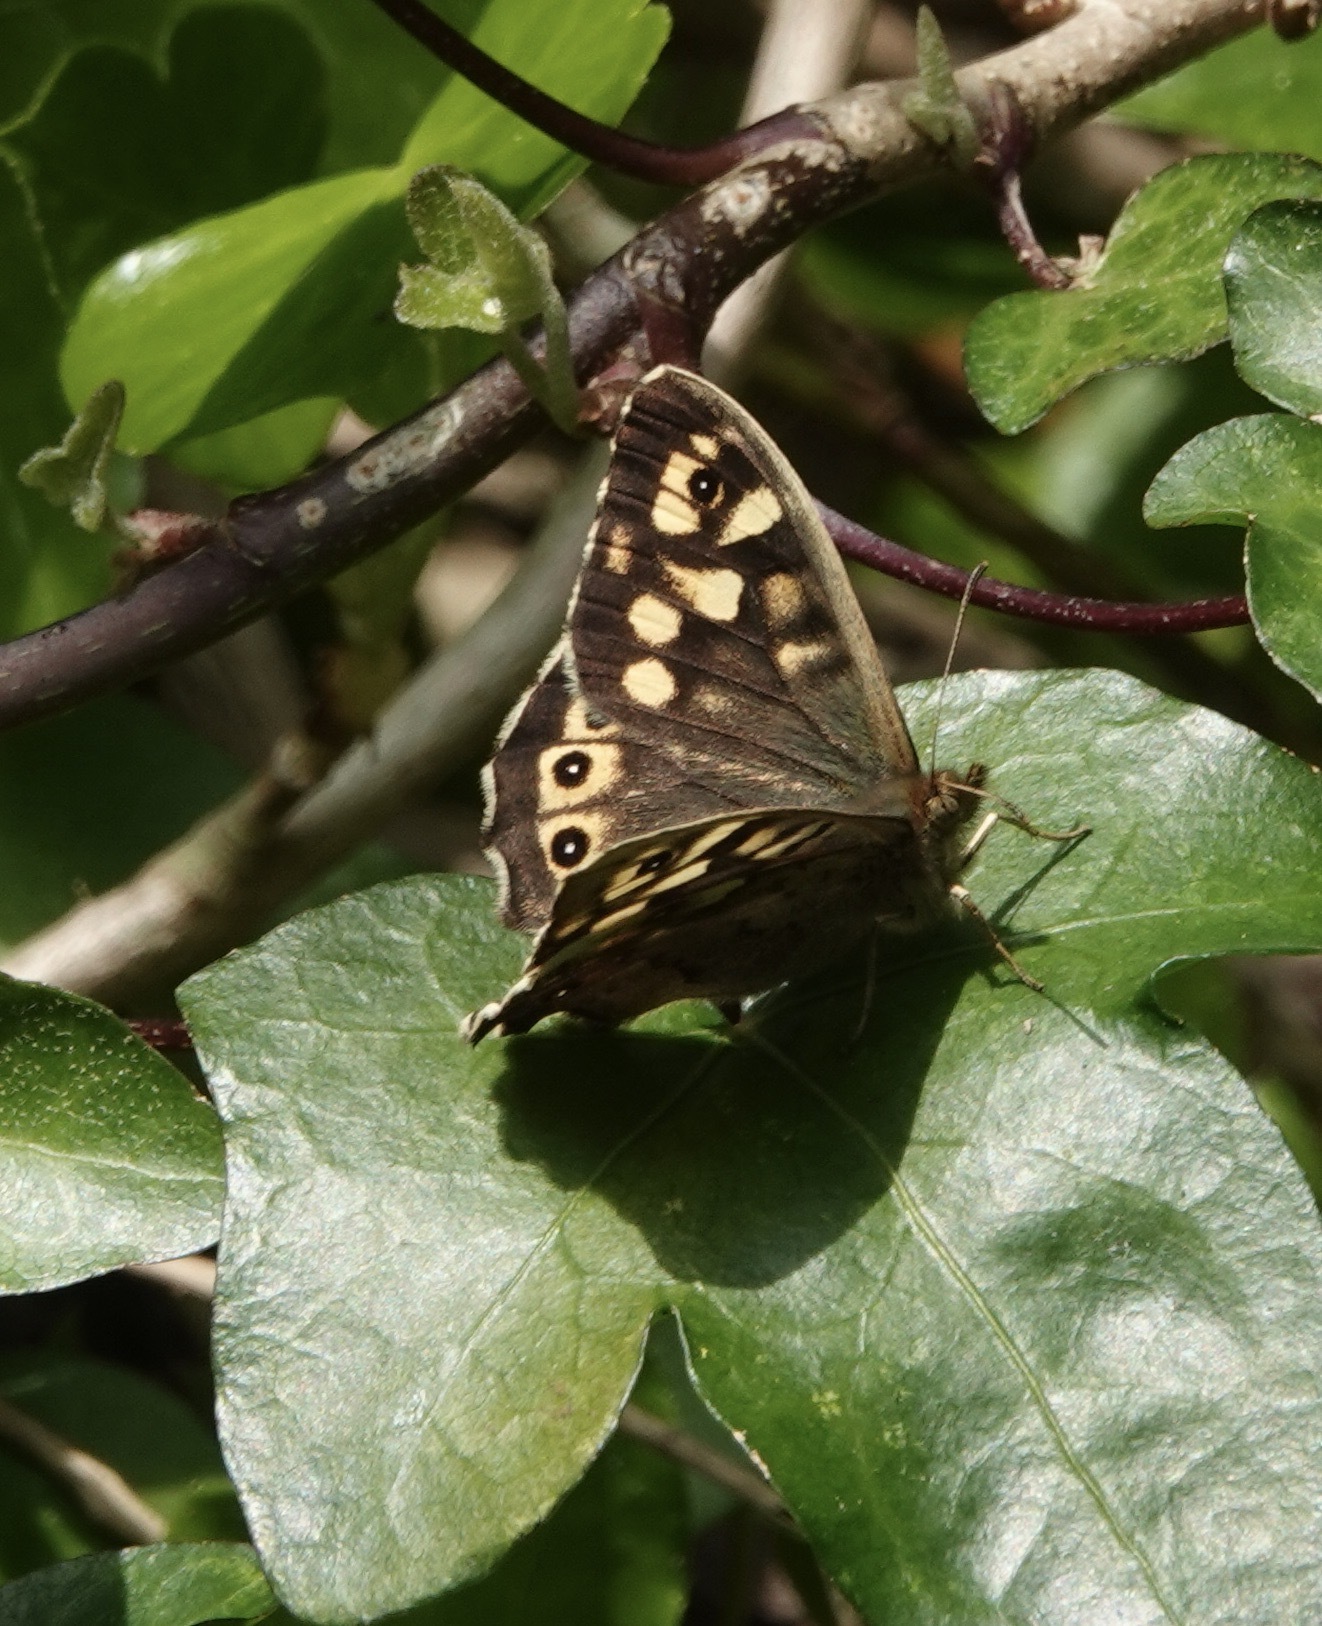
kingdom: Animalia
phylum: Arthropoda
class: Insecta
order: Lepidoptera
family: Nymphalidae
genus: Pararge
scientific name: Pararge aegeria
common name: Speckled wood
